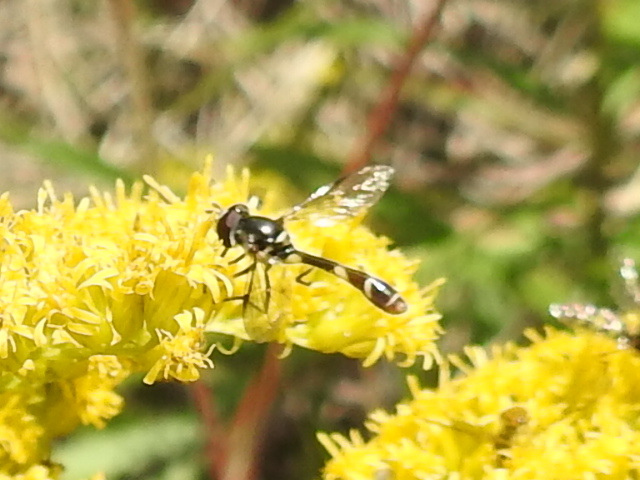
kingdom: Animalia
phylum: Arthropoda
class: Insecta
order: Diptera
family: Syrphidae
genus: Dioprosopa
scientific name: Dioprosopa clavatus
